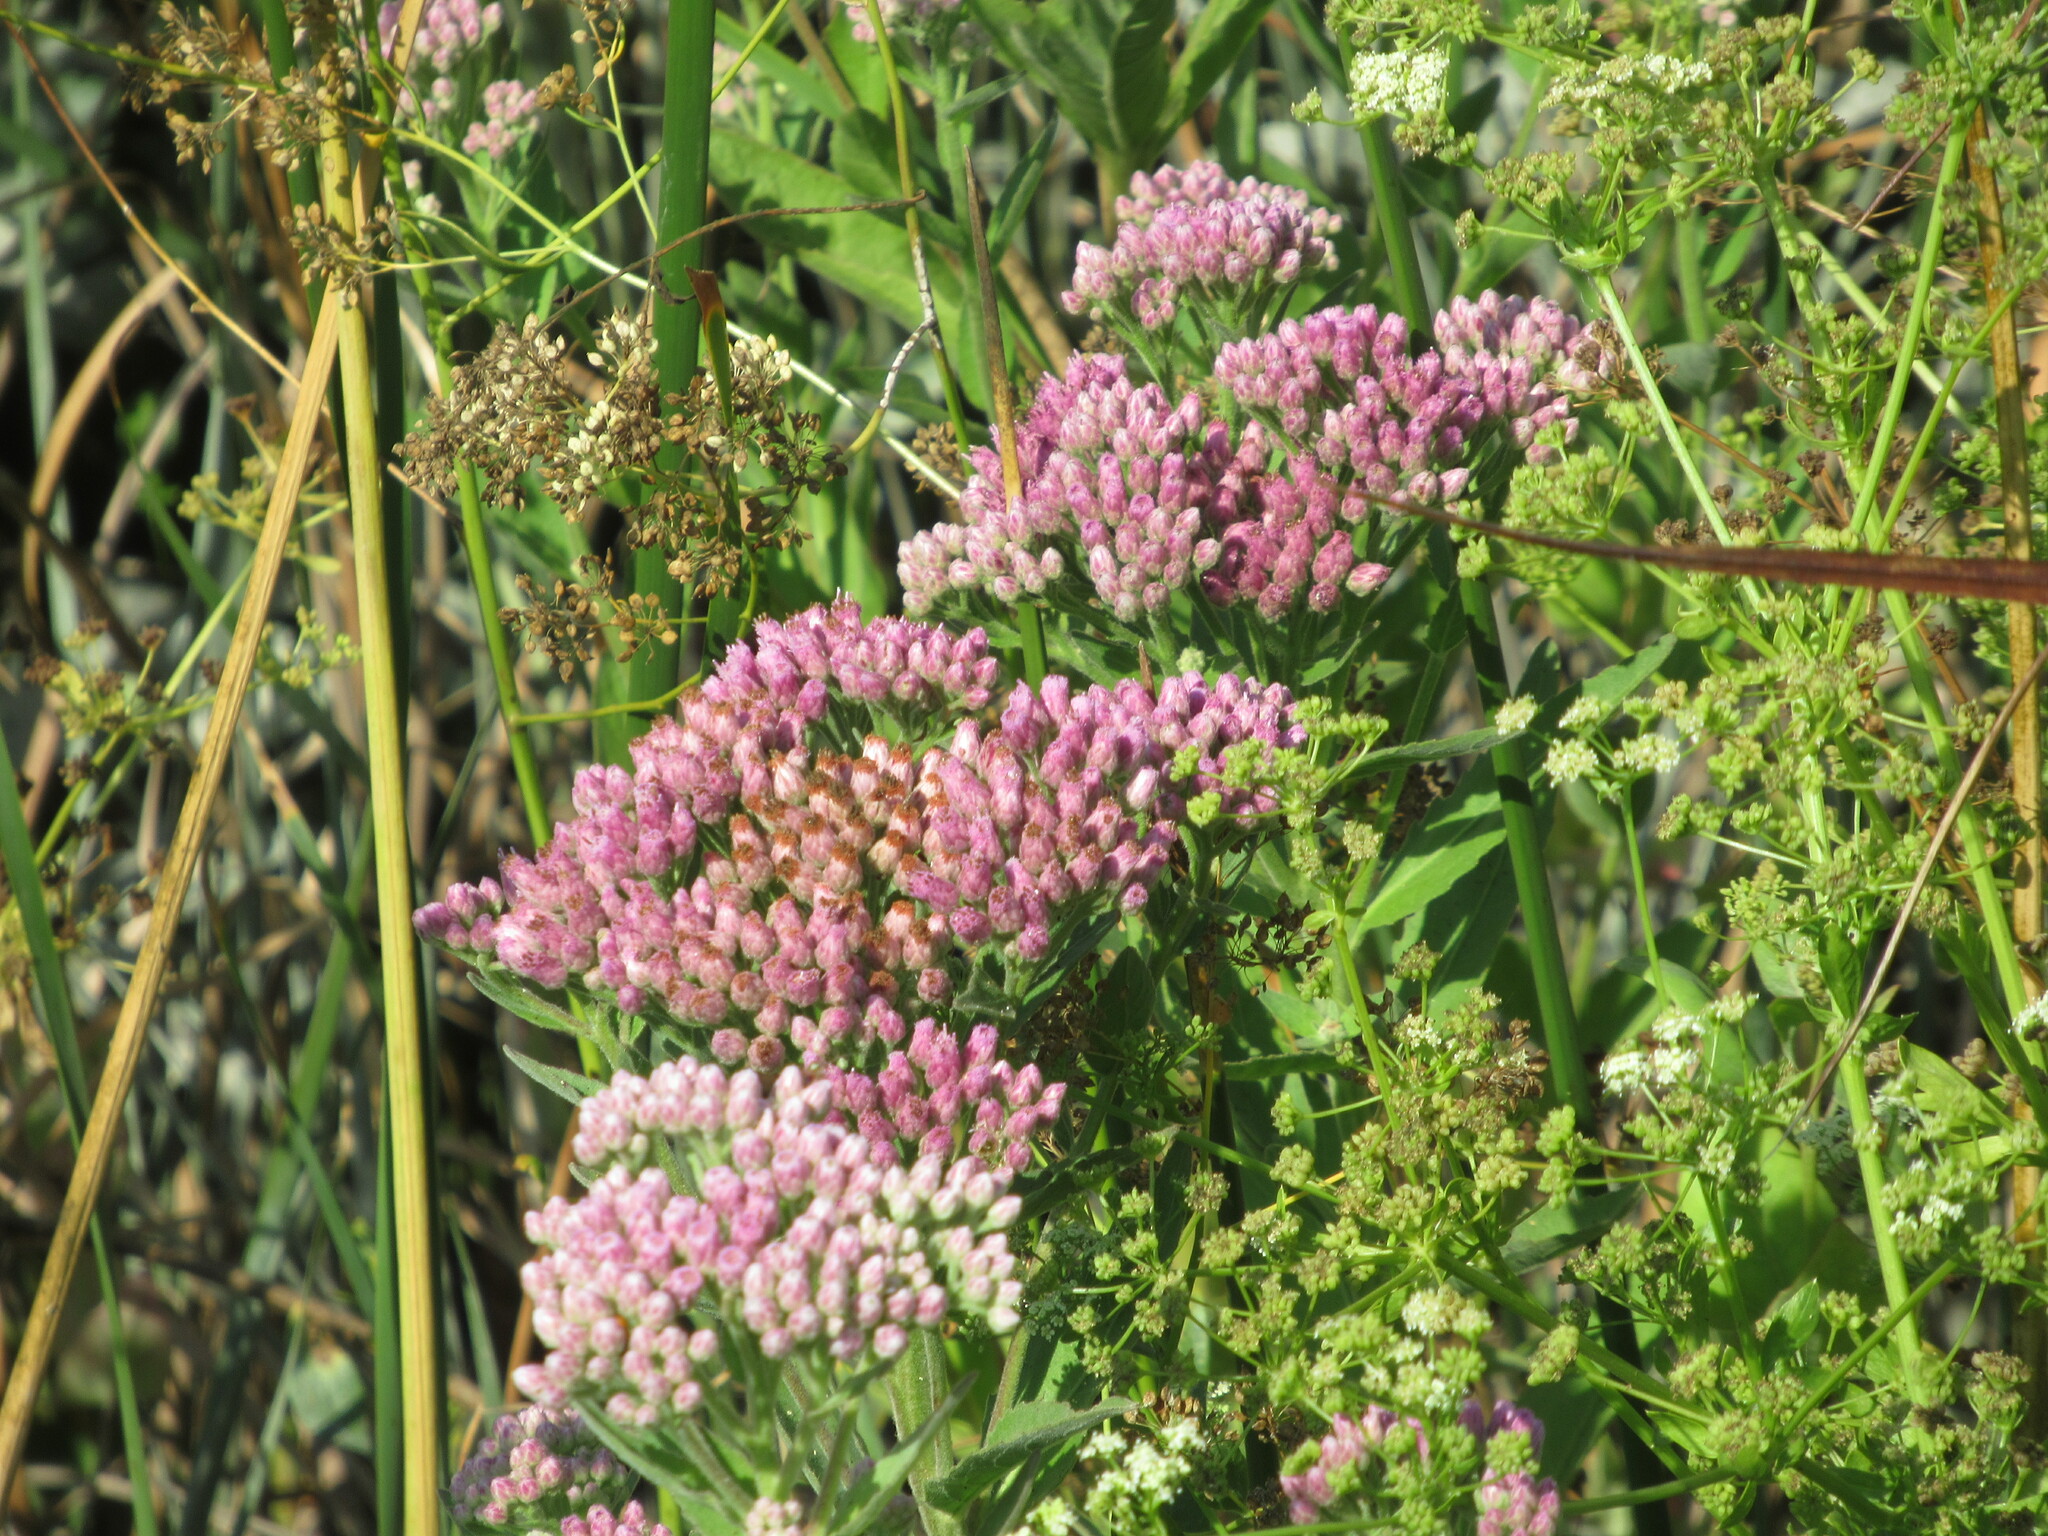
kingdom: Plantae
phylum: Tracheophyta
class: Magnoliopsida
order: Asterales
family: Asteraceae
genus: Pluchea
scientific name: Pluchea odorata
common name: Saltmarsh fleabane
